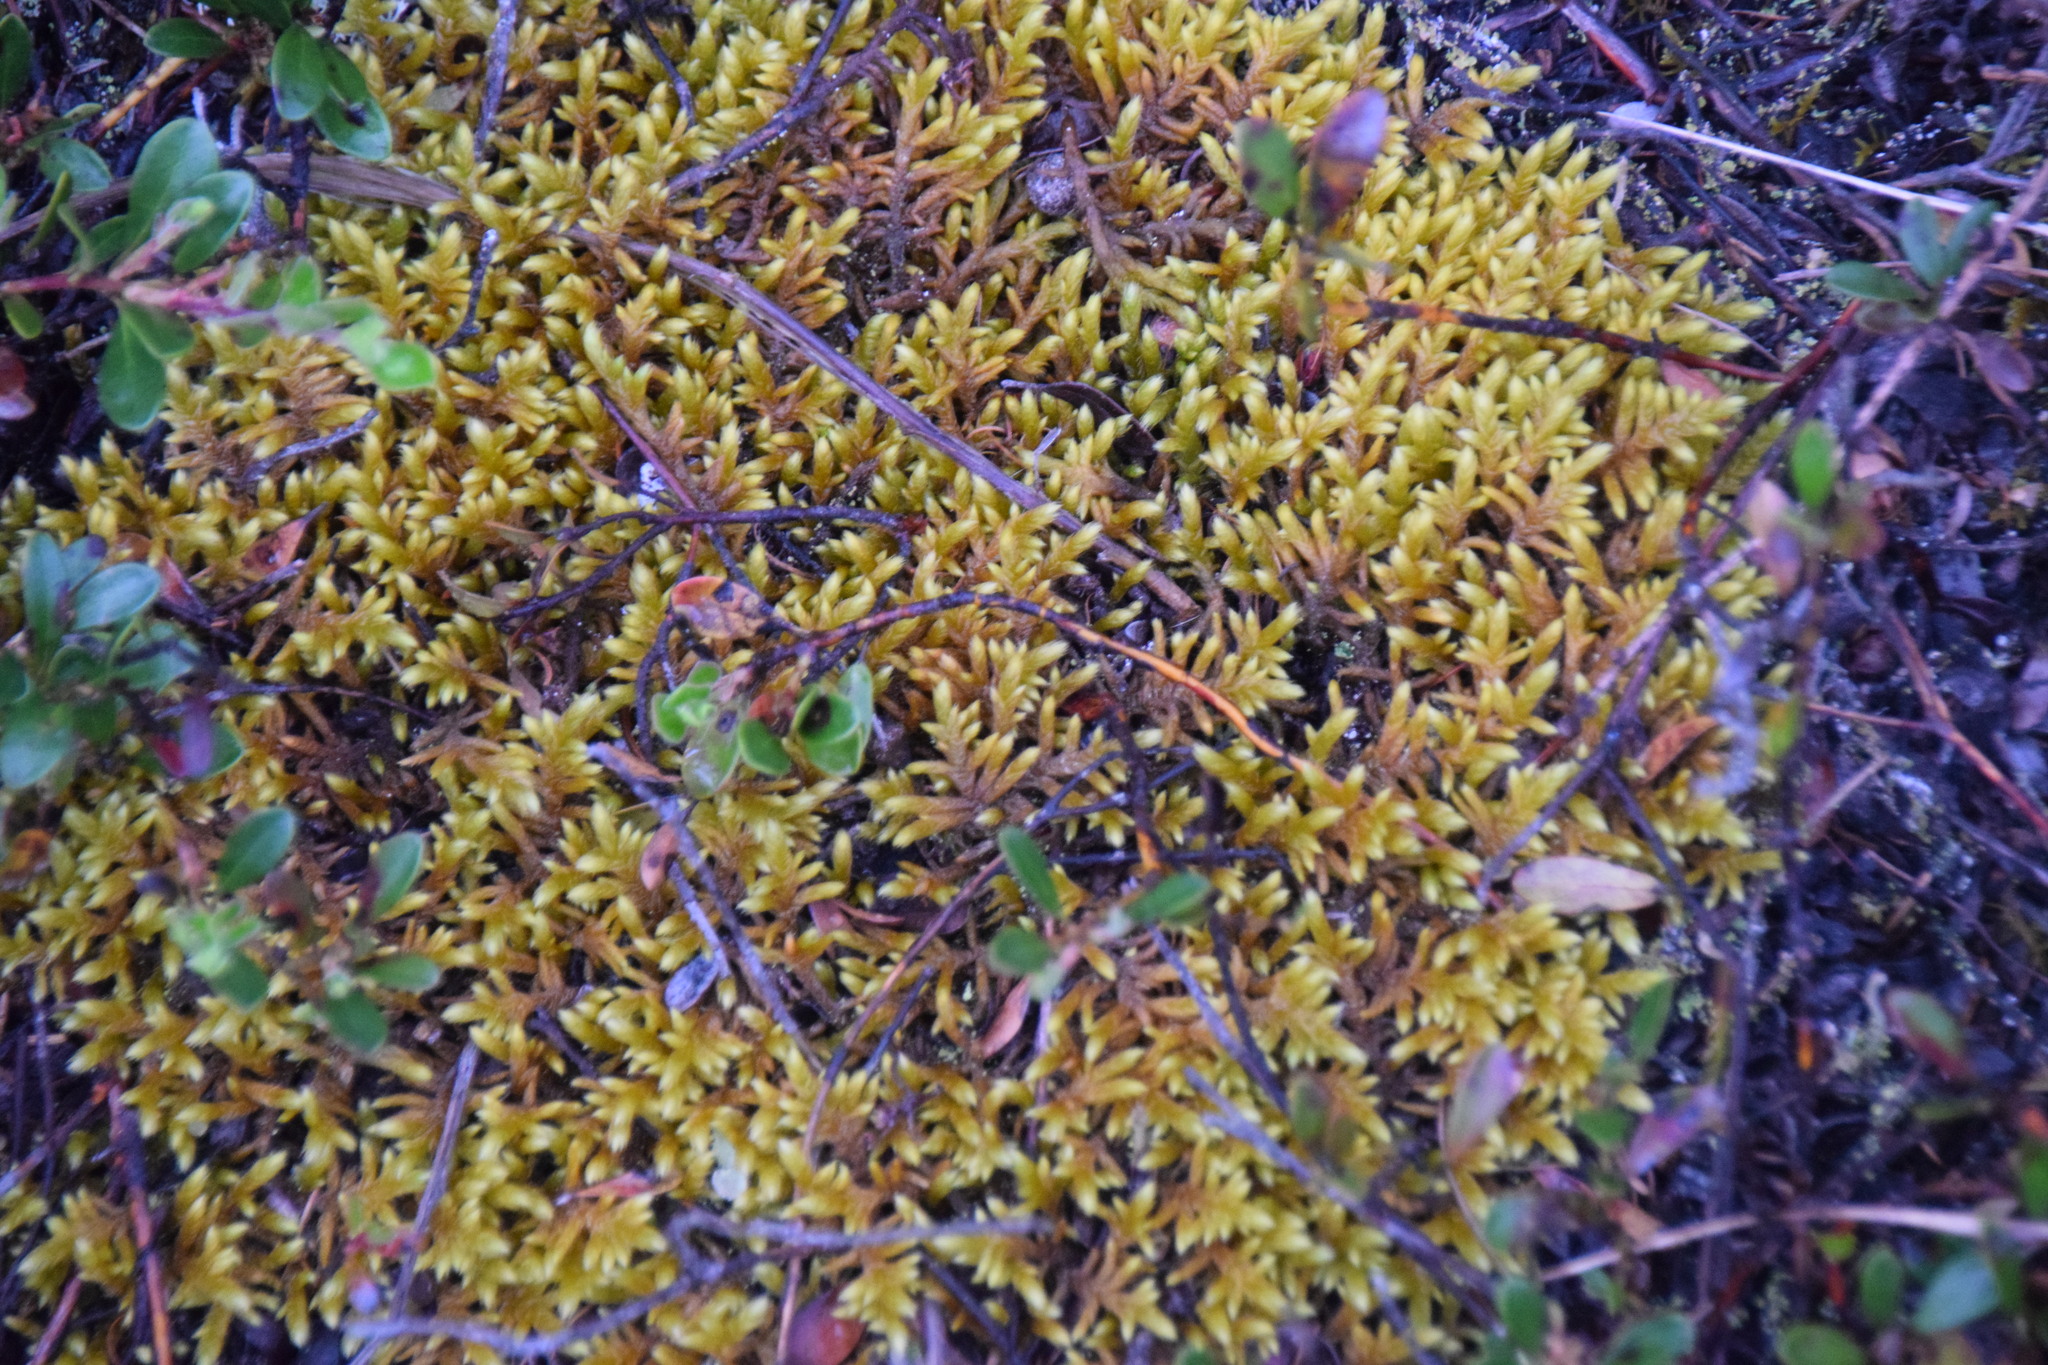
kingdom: Plantae
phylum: Bryophyta
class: Bryopsida
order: Hypnales
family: Hylocomiaceae
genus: Pleurozium
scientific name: Pleurozium schreberi
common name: Red-stemmed feather moss
